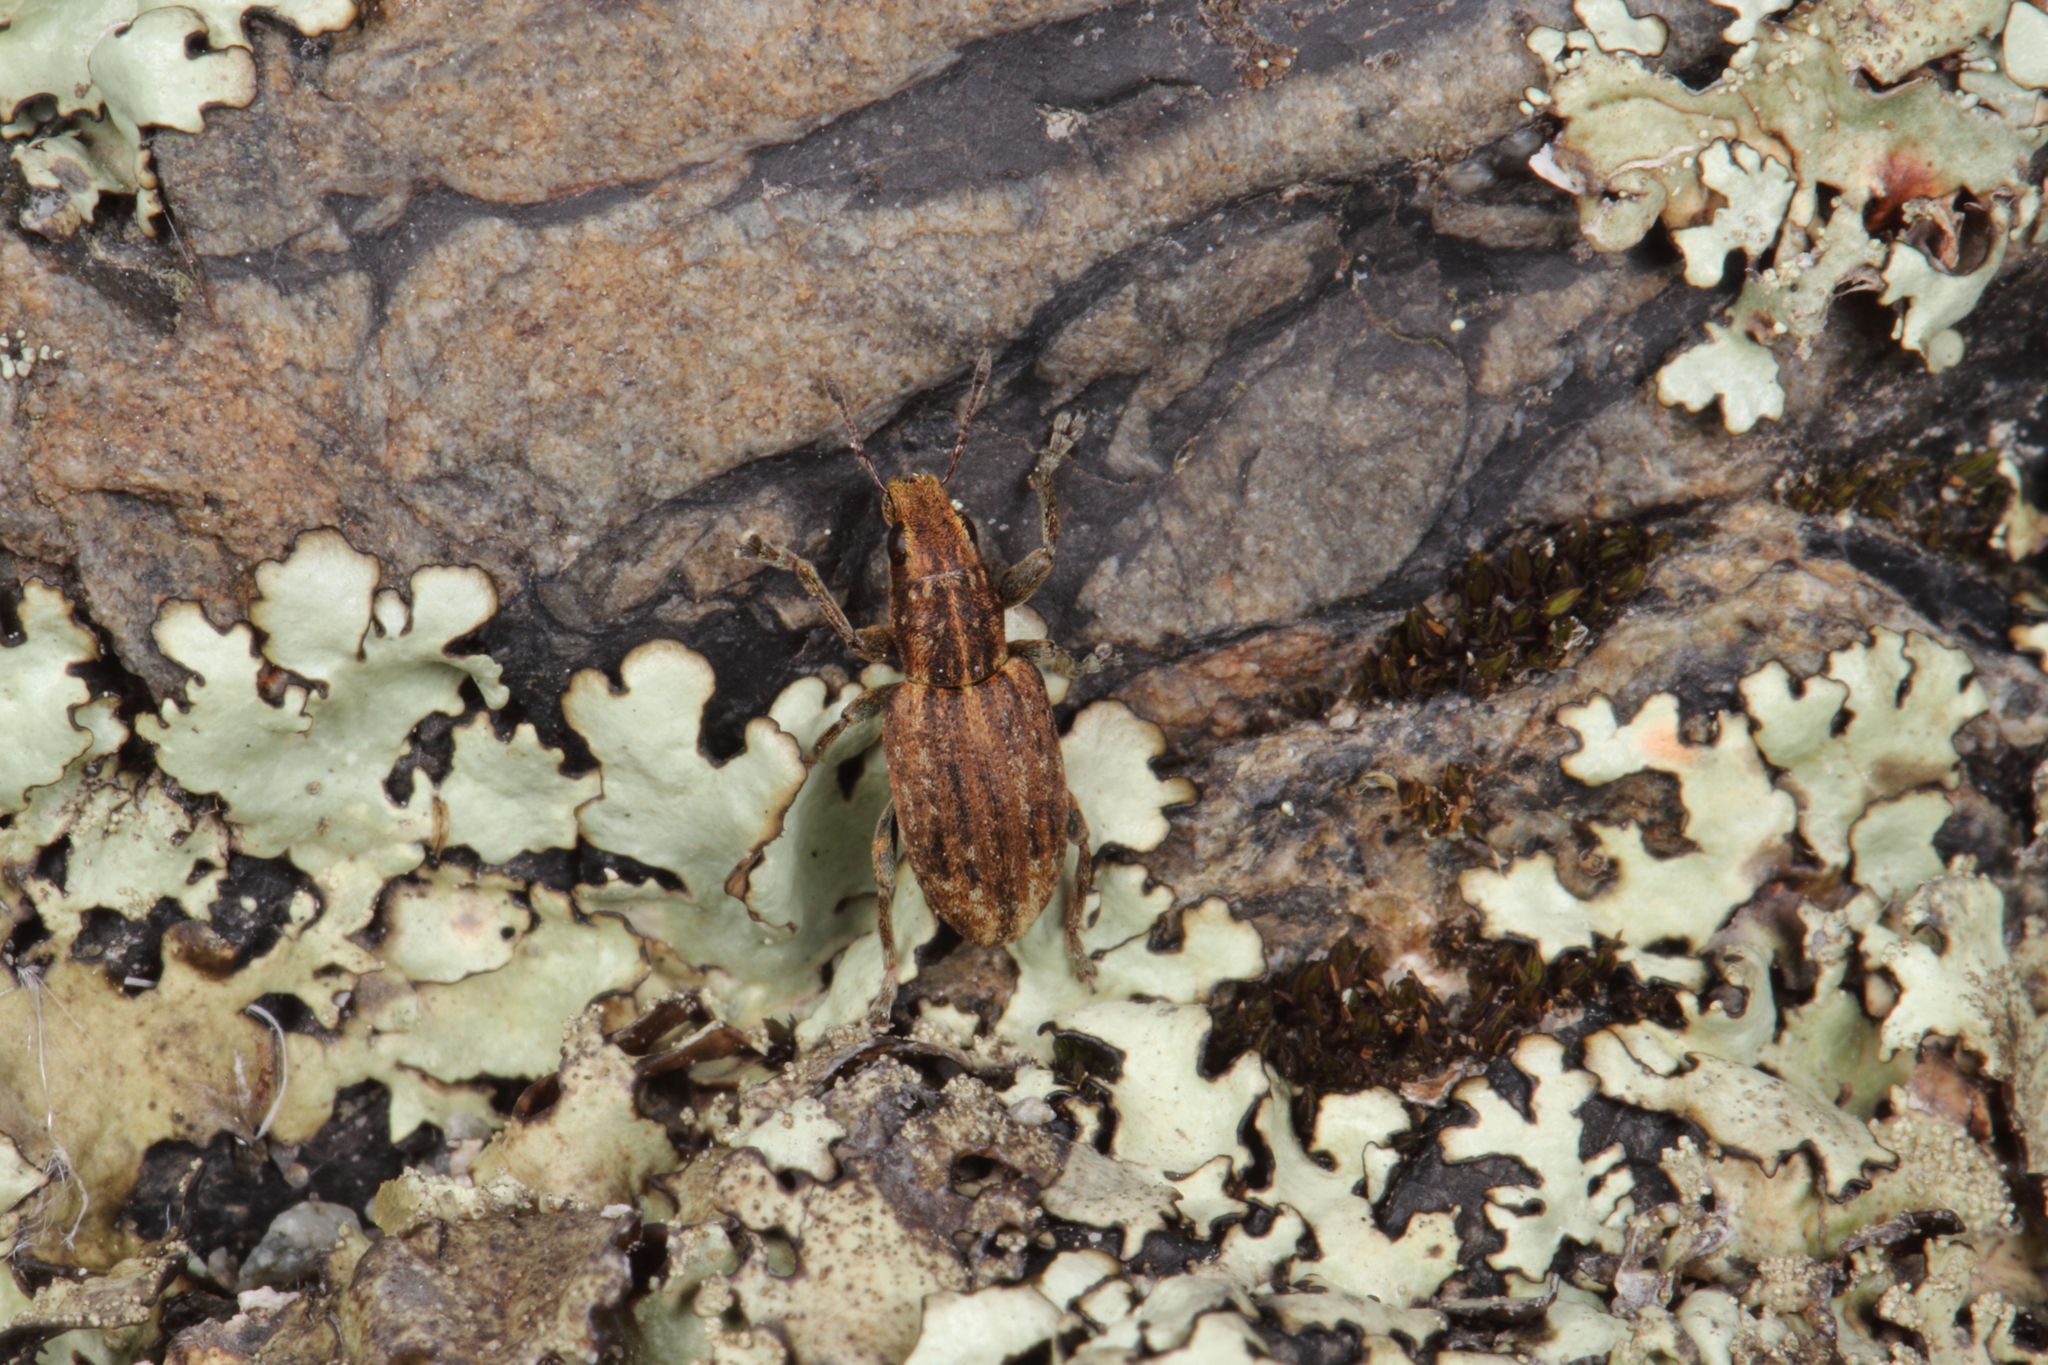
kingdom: Animalia
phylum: Arthropoda
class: Insecta
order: Coleoptera
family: Curculionidae
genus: Sitona
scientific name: Sitona obsoletus
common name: Weevil
